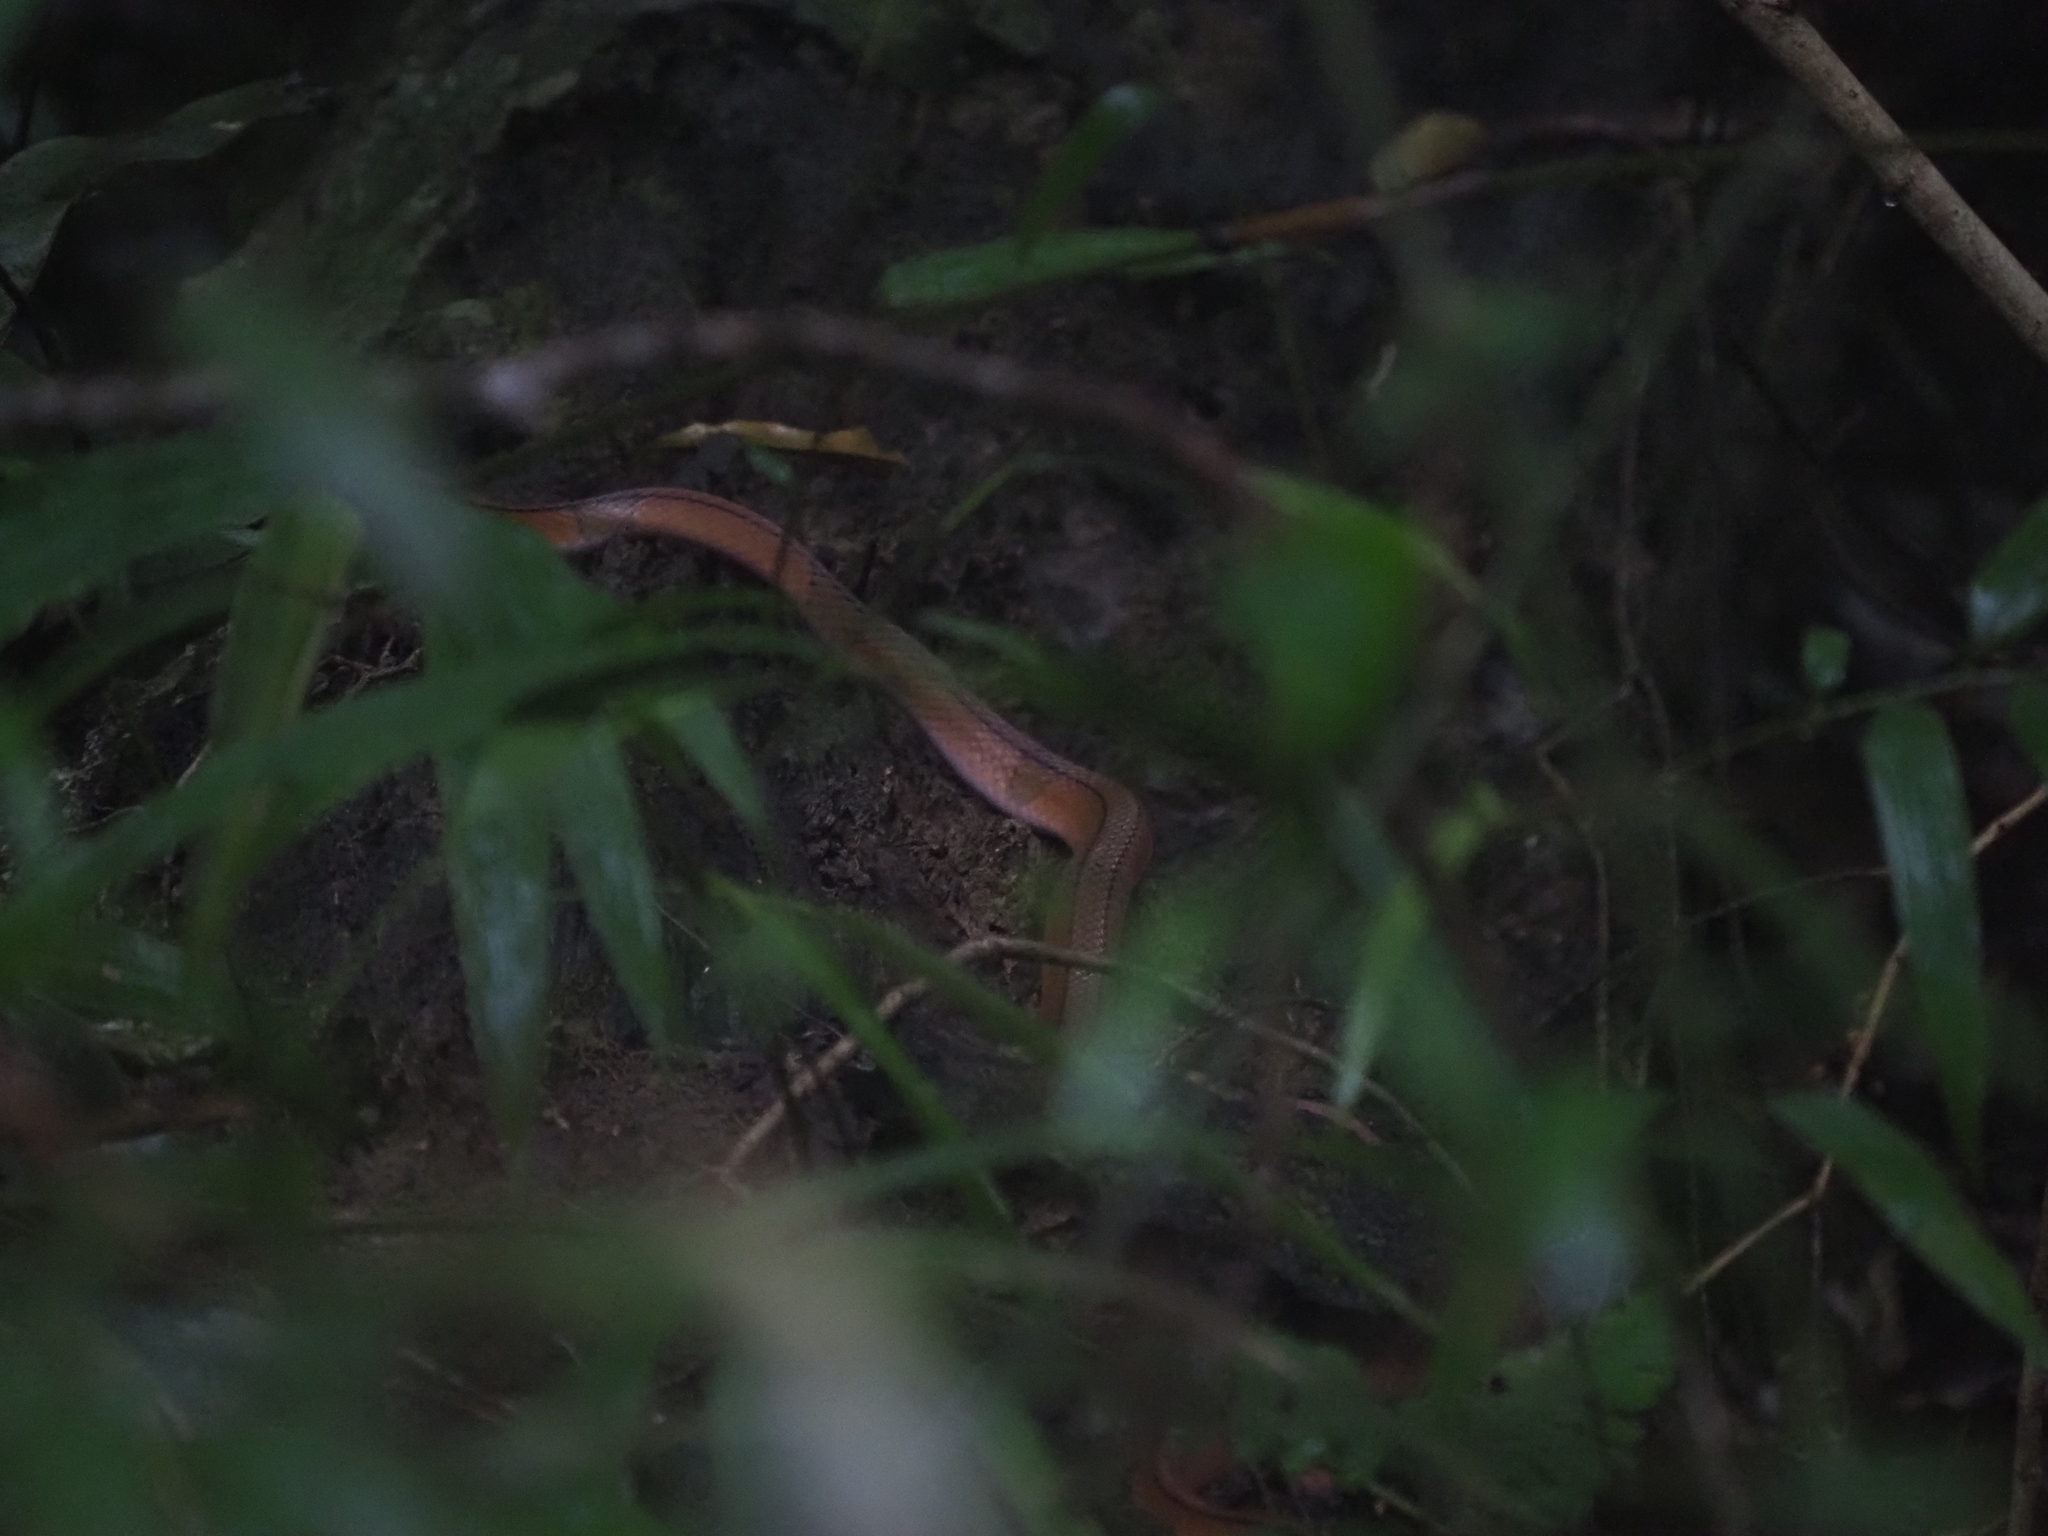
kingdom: Animalia
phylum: Chordata
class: Squamata
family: Colubridae
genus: Oreocryptophis
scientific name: Oreocryptophis porphyraceus
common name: Black-banded trinket snake
